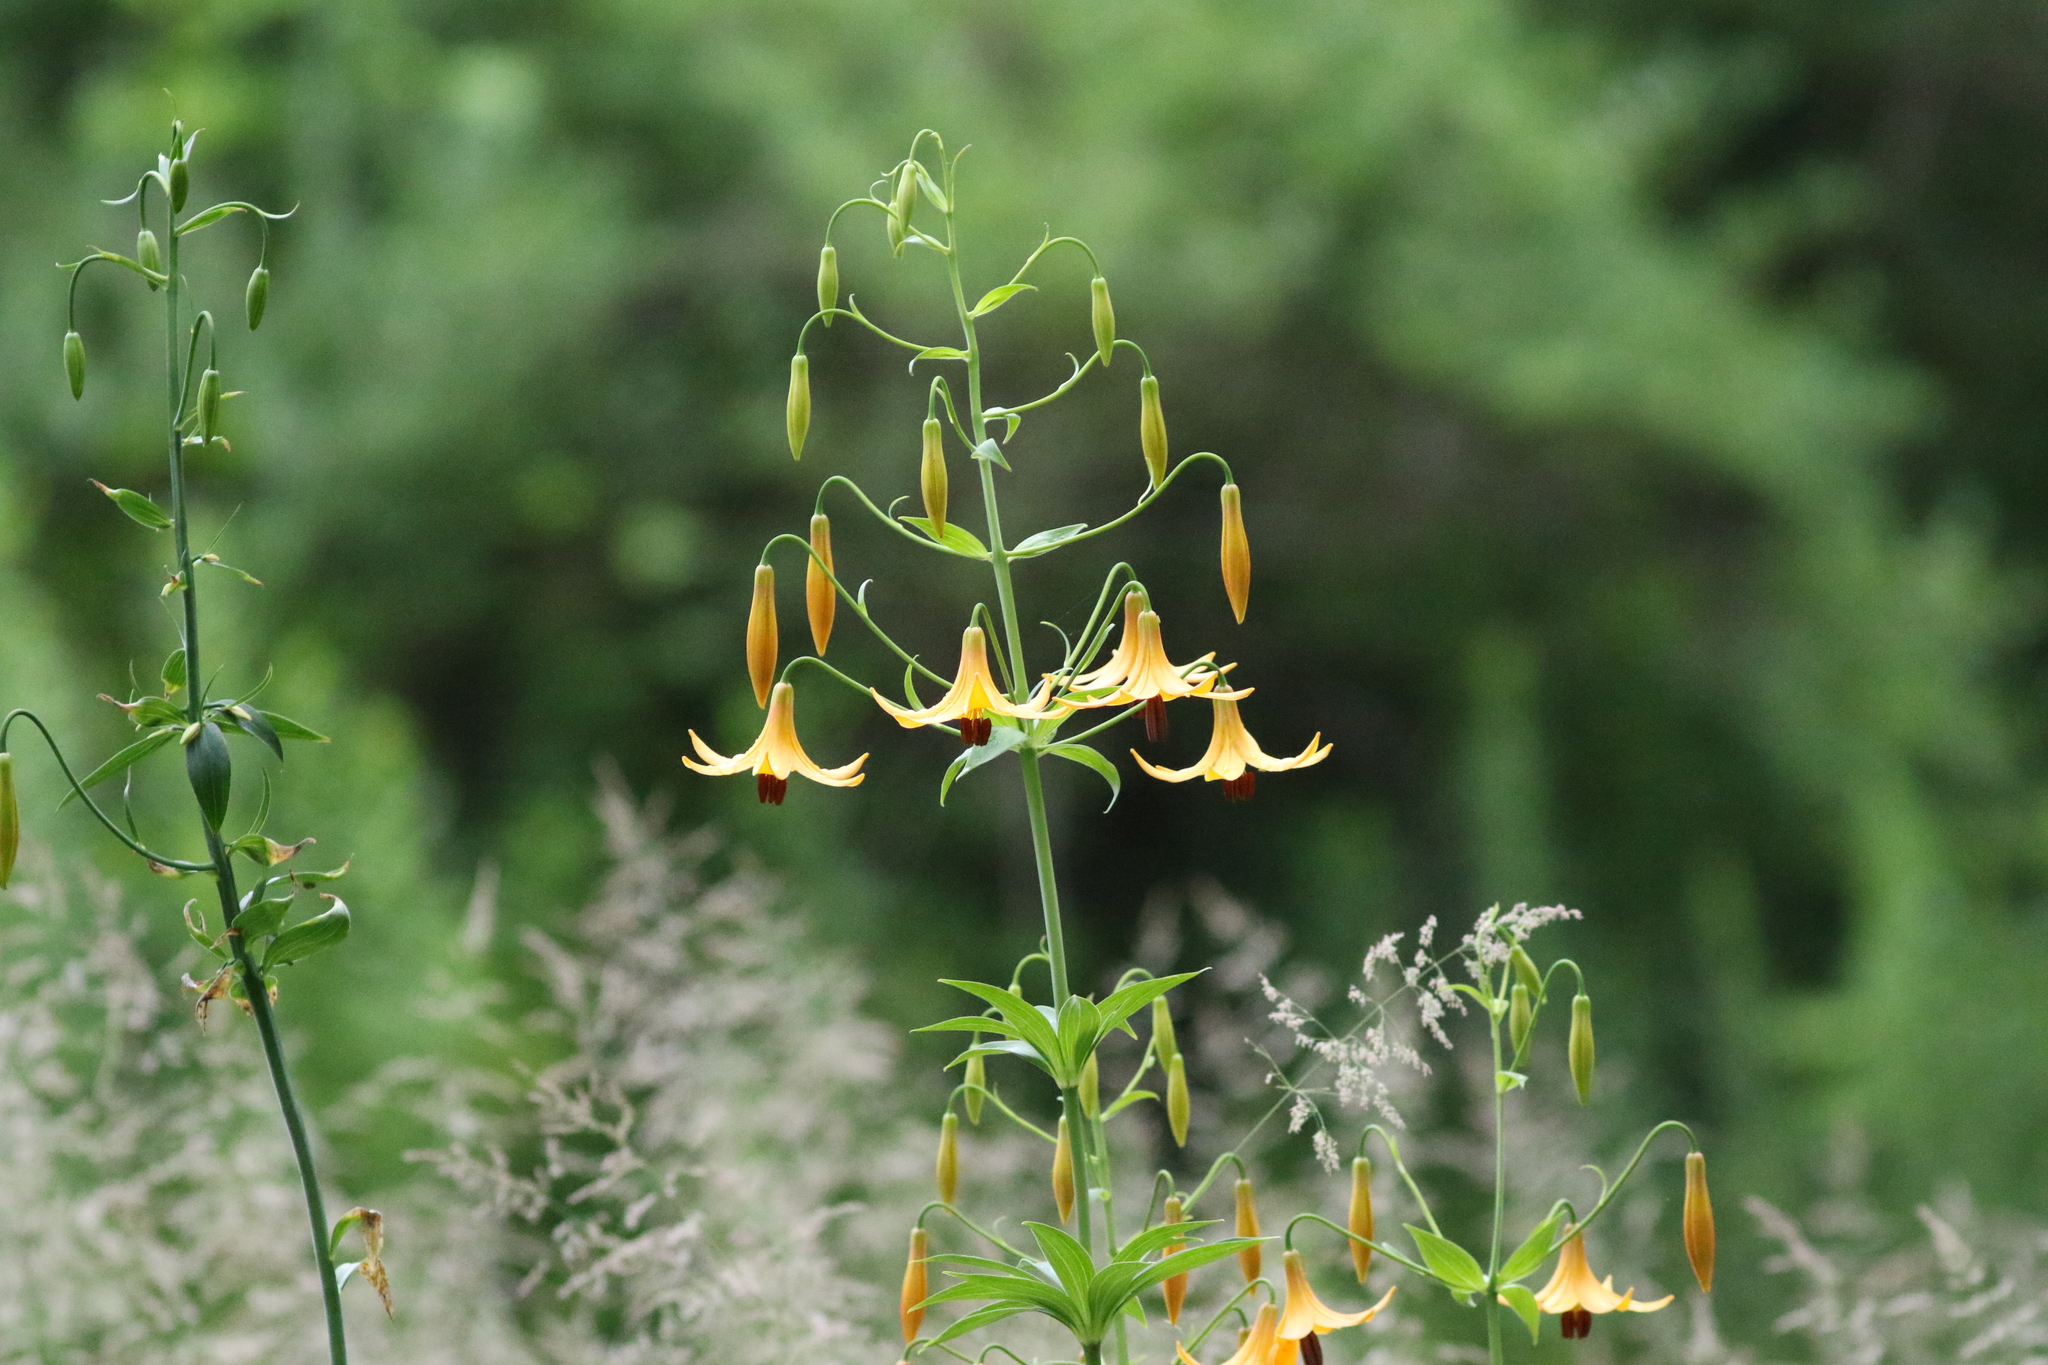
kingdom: Plantae
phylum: Tracheophyta
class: Liliopsida
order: Liliales
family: Liliaceae
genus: Lilium
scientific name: Lilium canadense
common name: Canada lily
